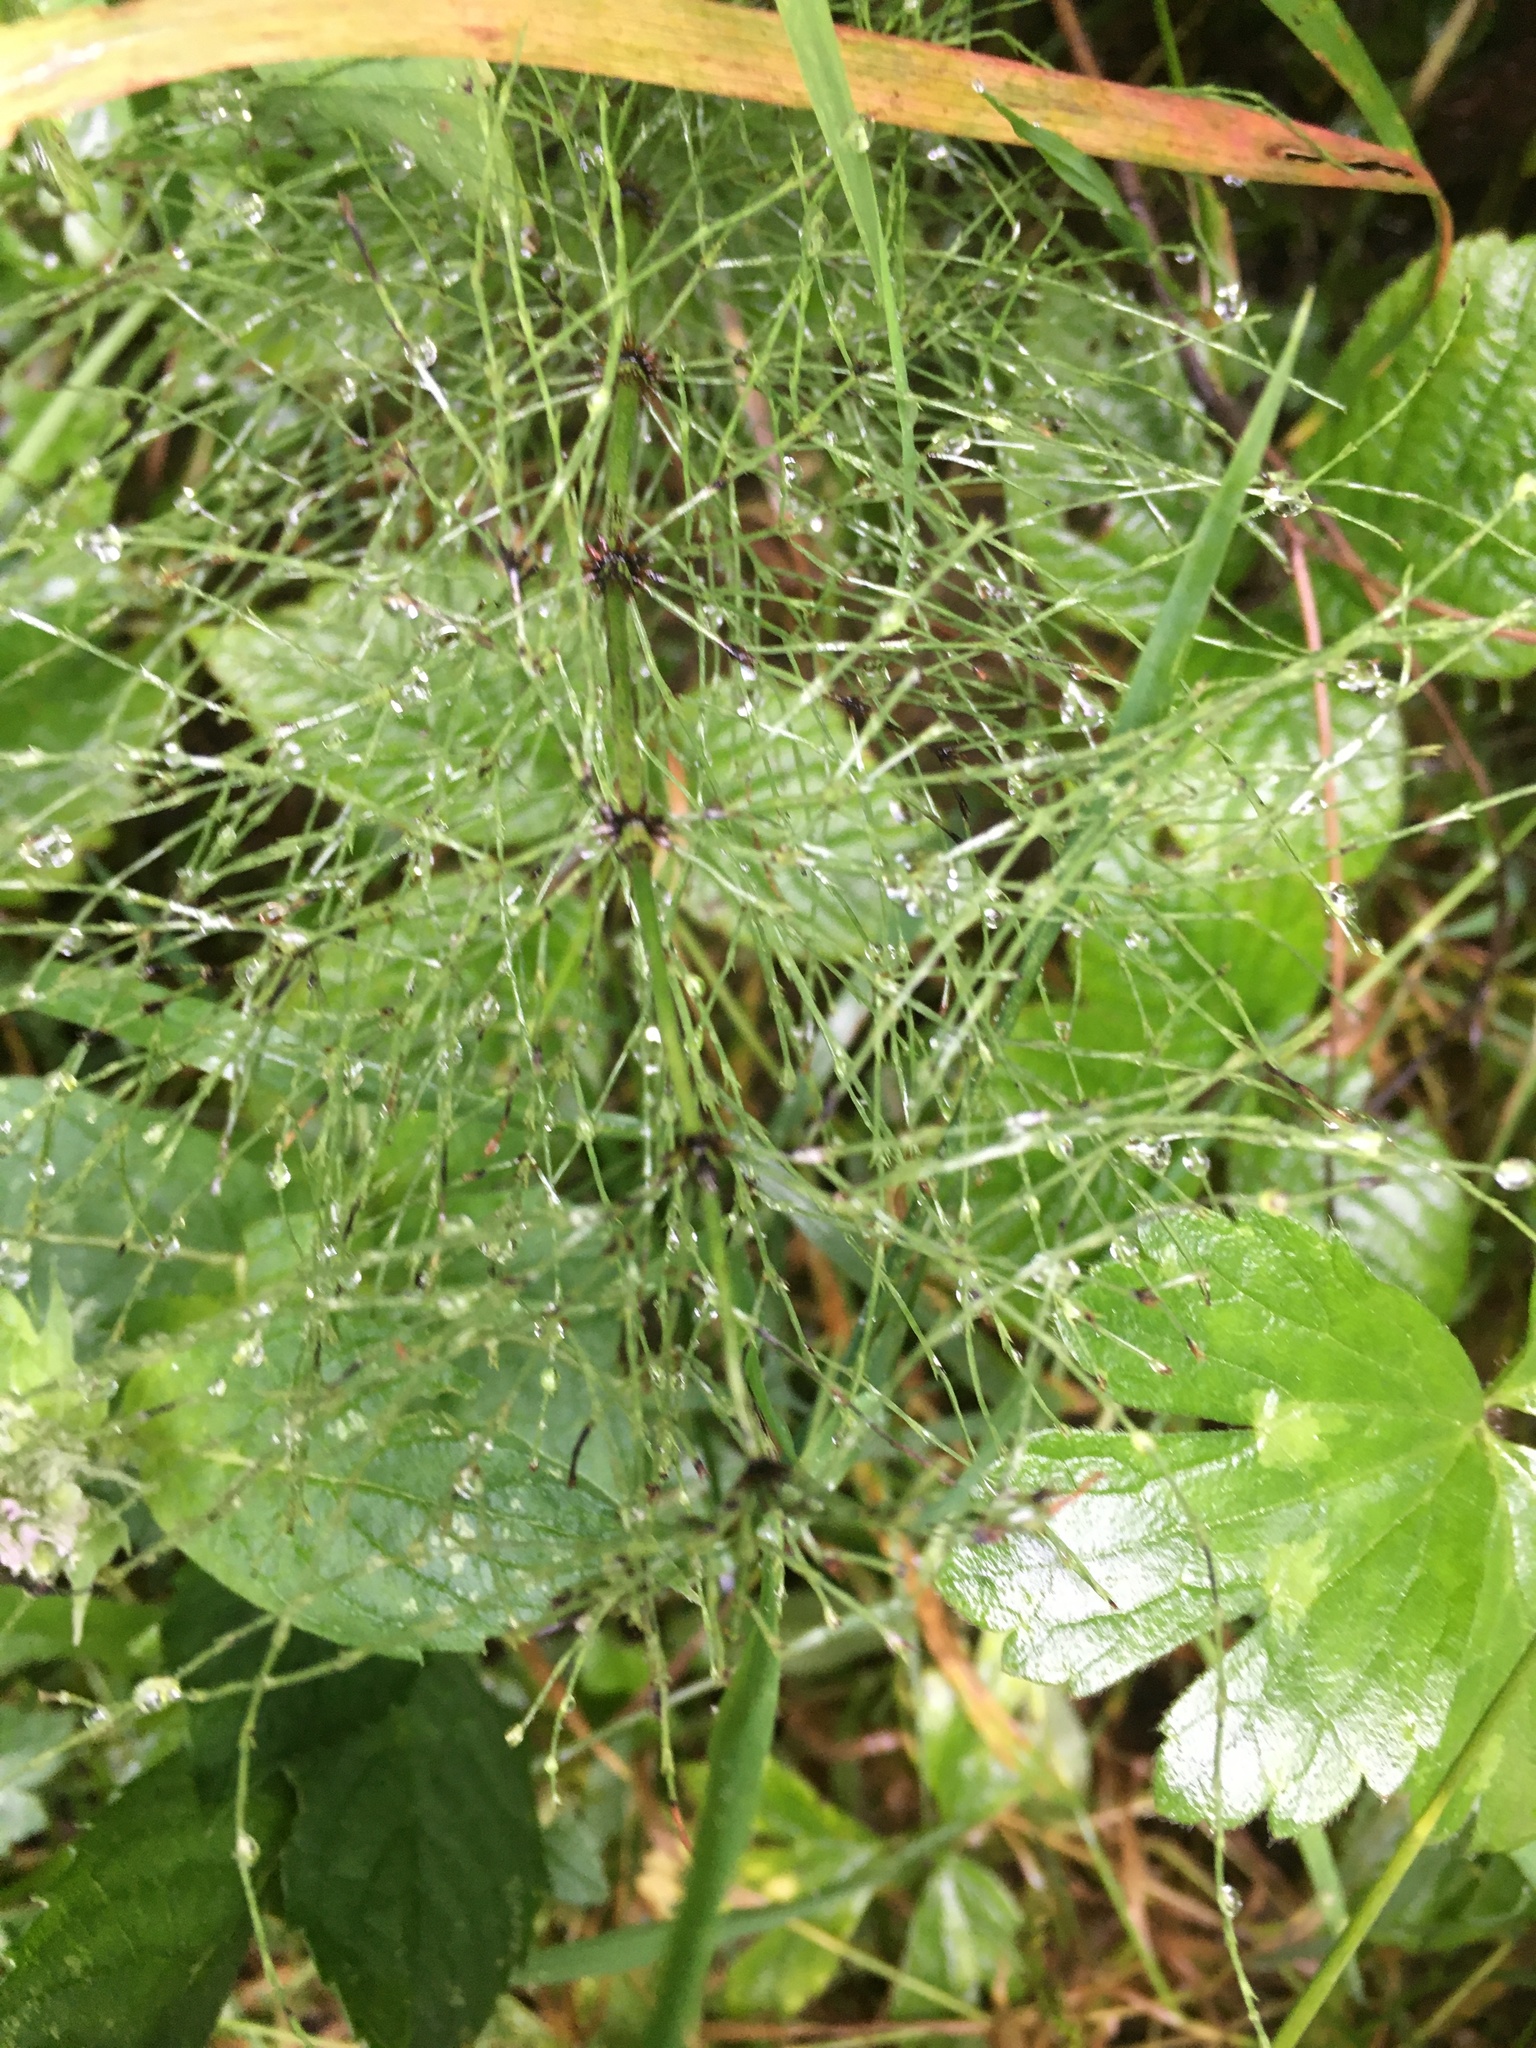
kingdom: Plantae
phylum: Tracheophyta
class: Polypodiopsida
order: Equisetales
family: Equisetaceae
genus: Equisetum
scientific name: Equisetum sylvaticum
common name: Wood horsetail
